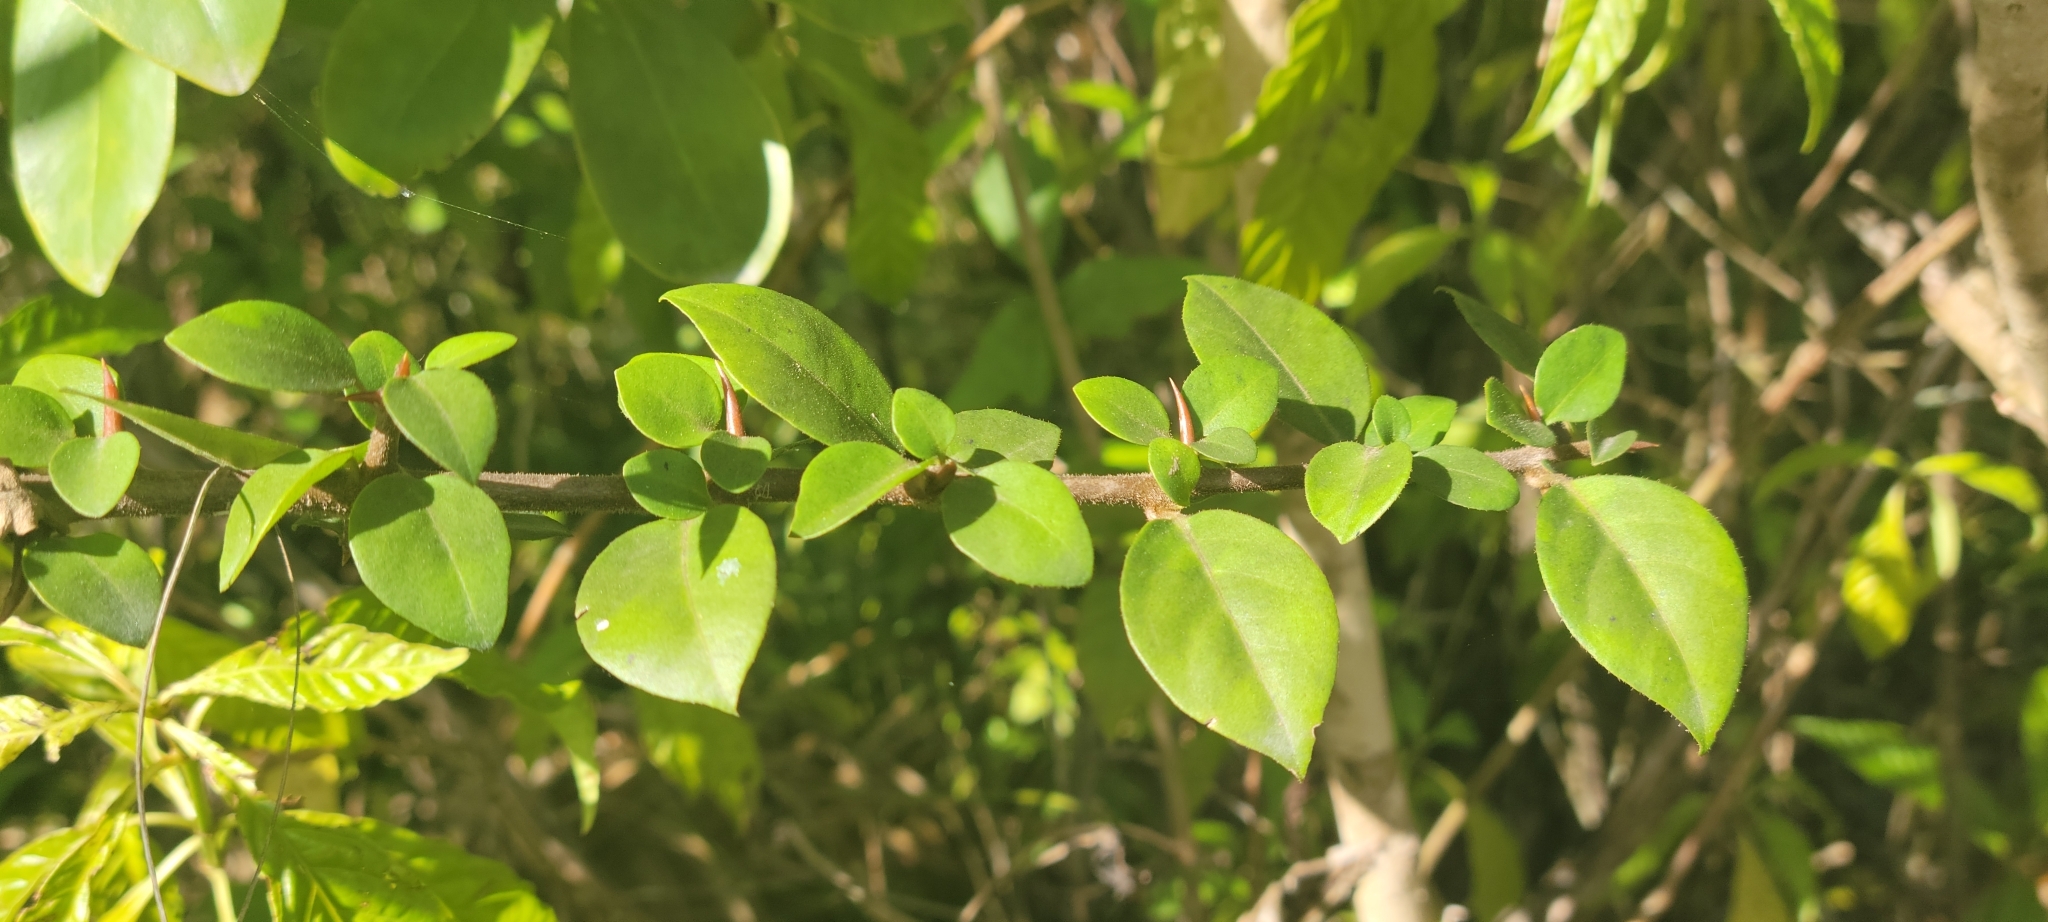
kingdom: Plantae
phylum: Tracheophyta
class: Magnoliopsida
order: Caryophyllales
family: Nyctaginaceae
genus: Pisonia
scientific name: Pisonia aculeata
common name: Cockspur vine
